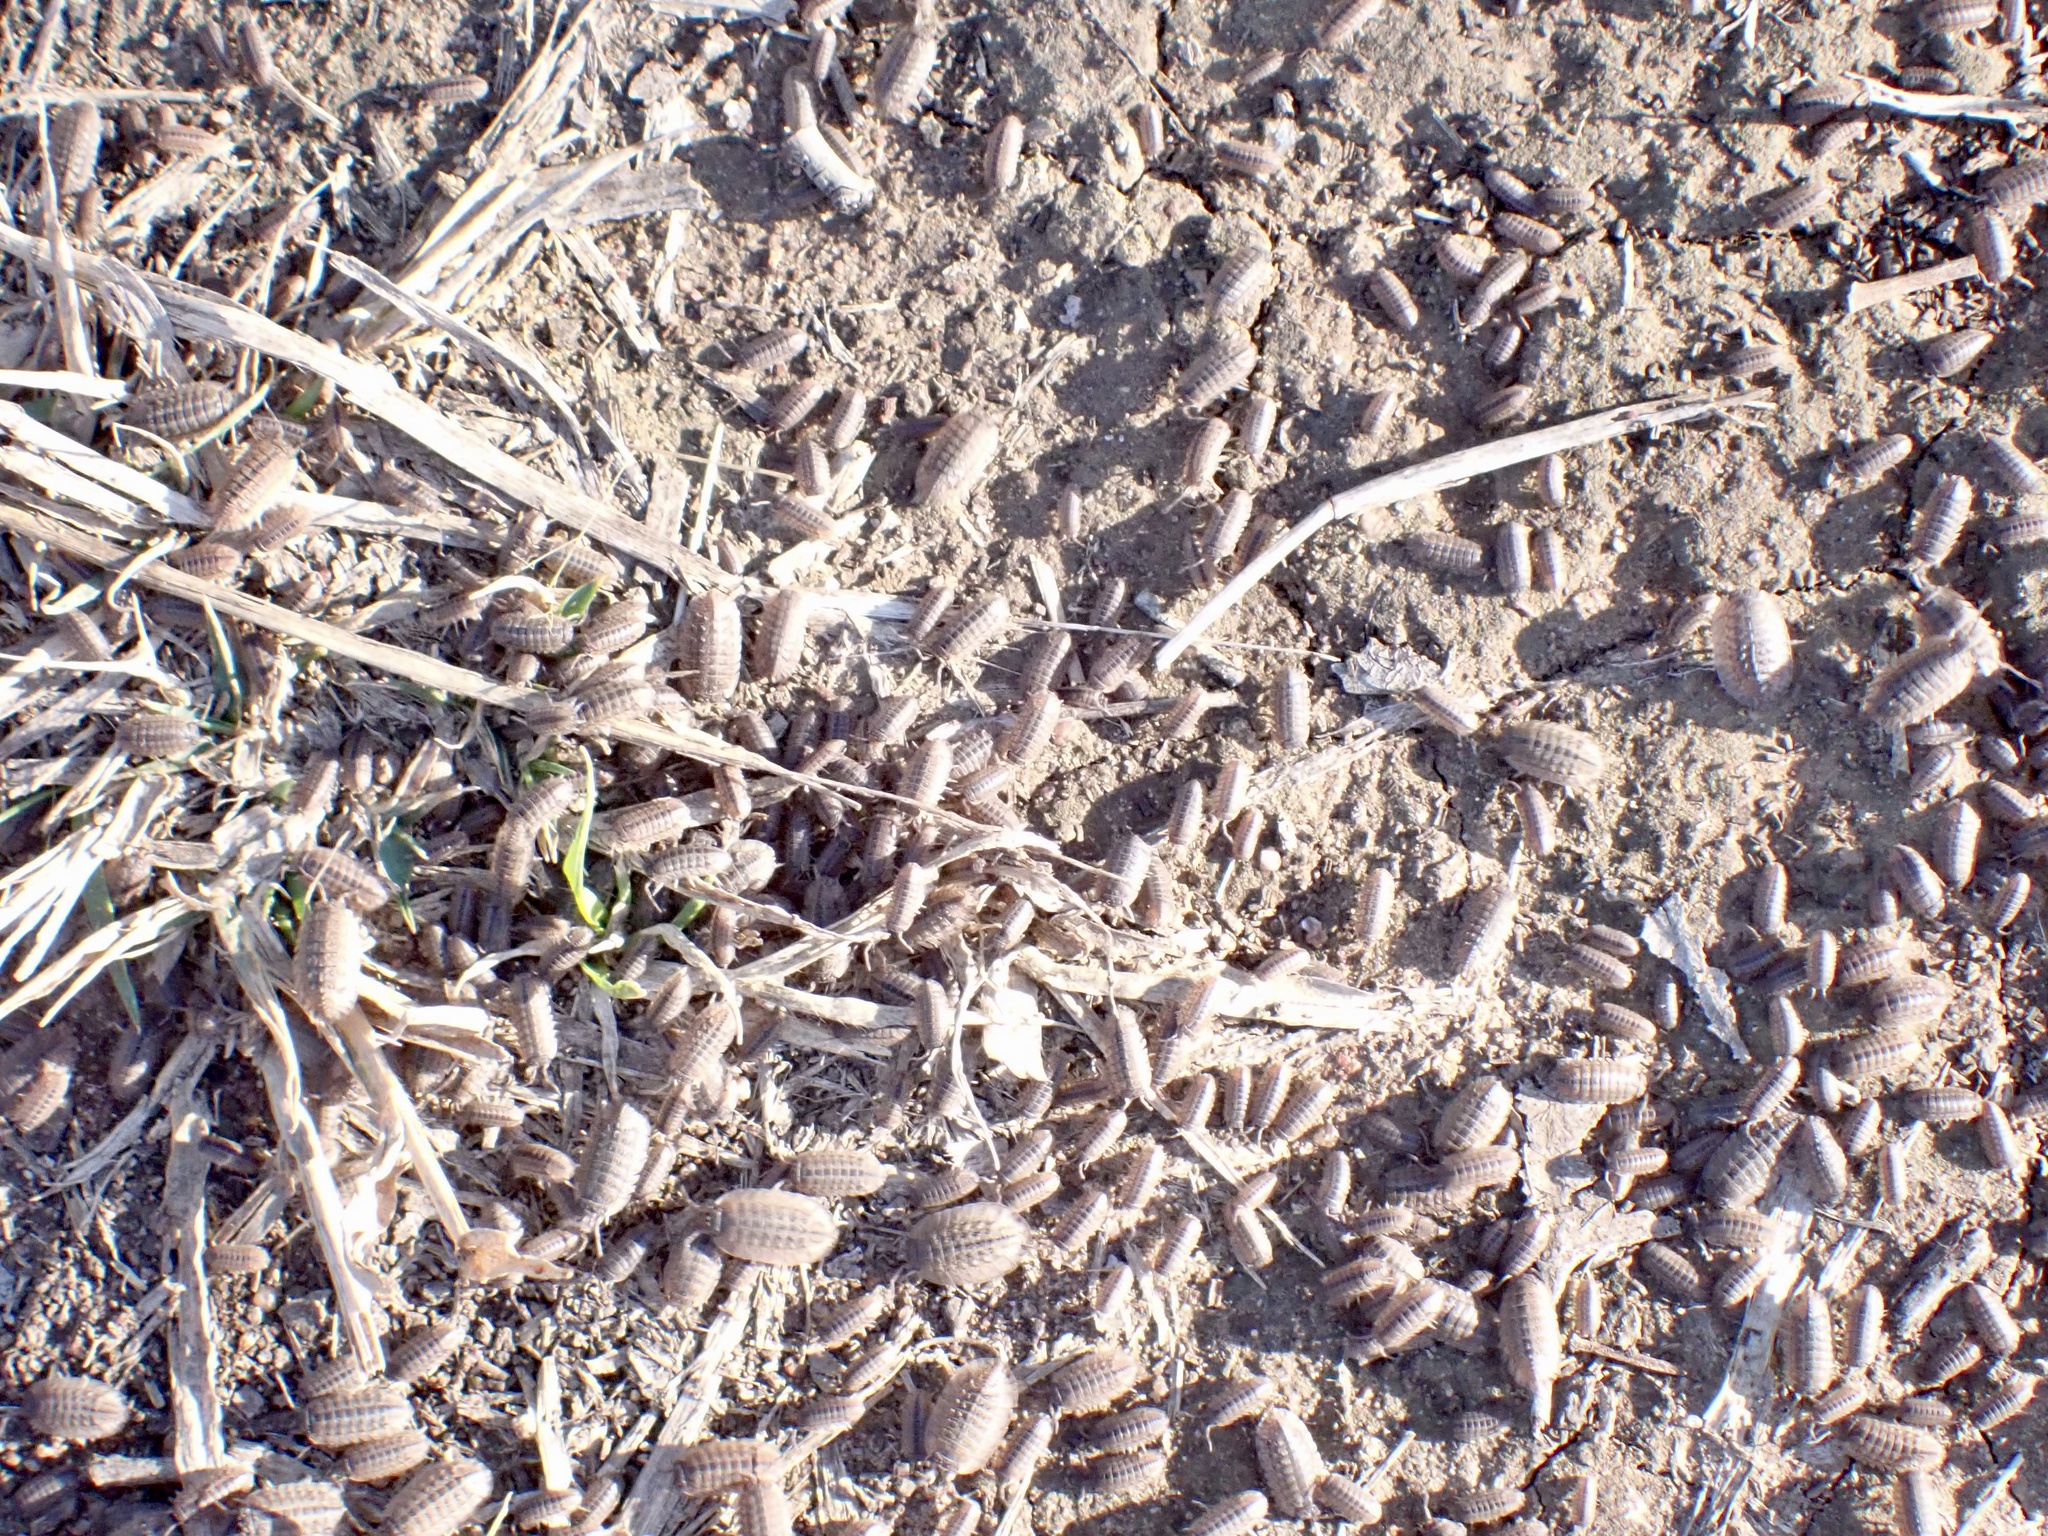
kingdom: Animalia
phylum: Arthropoda
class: Malacostraca
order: Isopoda
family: Armadillidae
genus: Australiodillo
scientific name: Australiodillo bifrons
